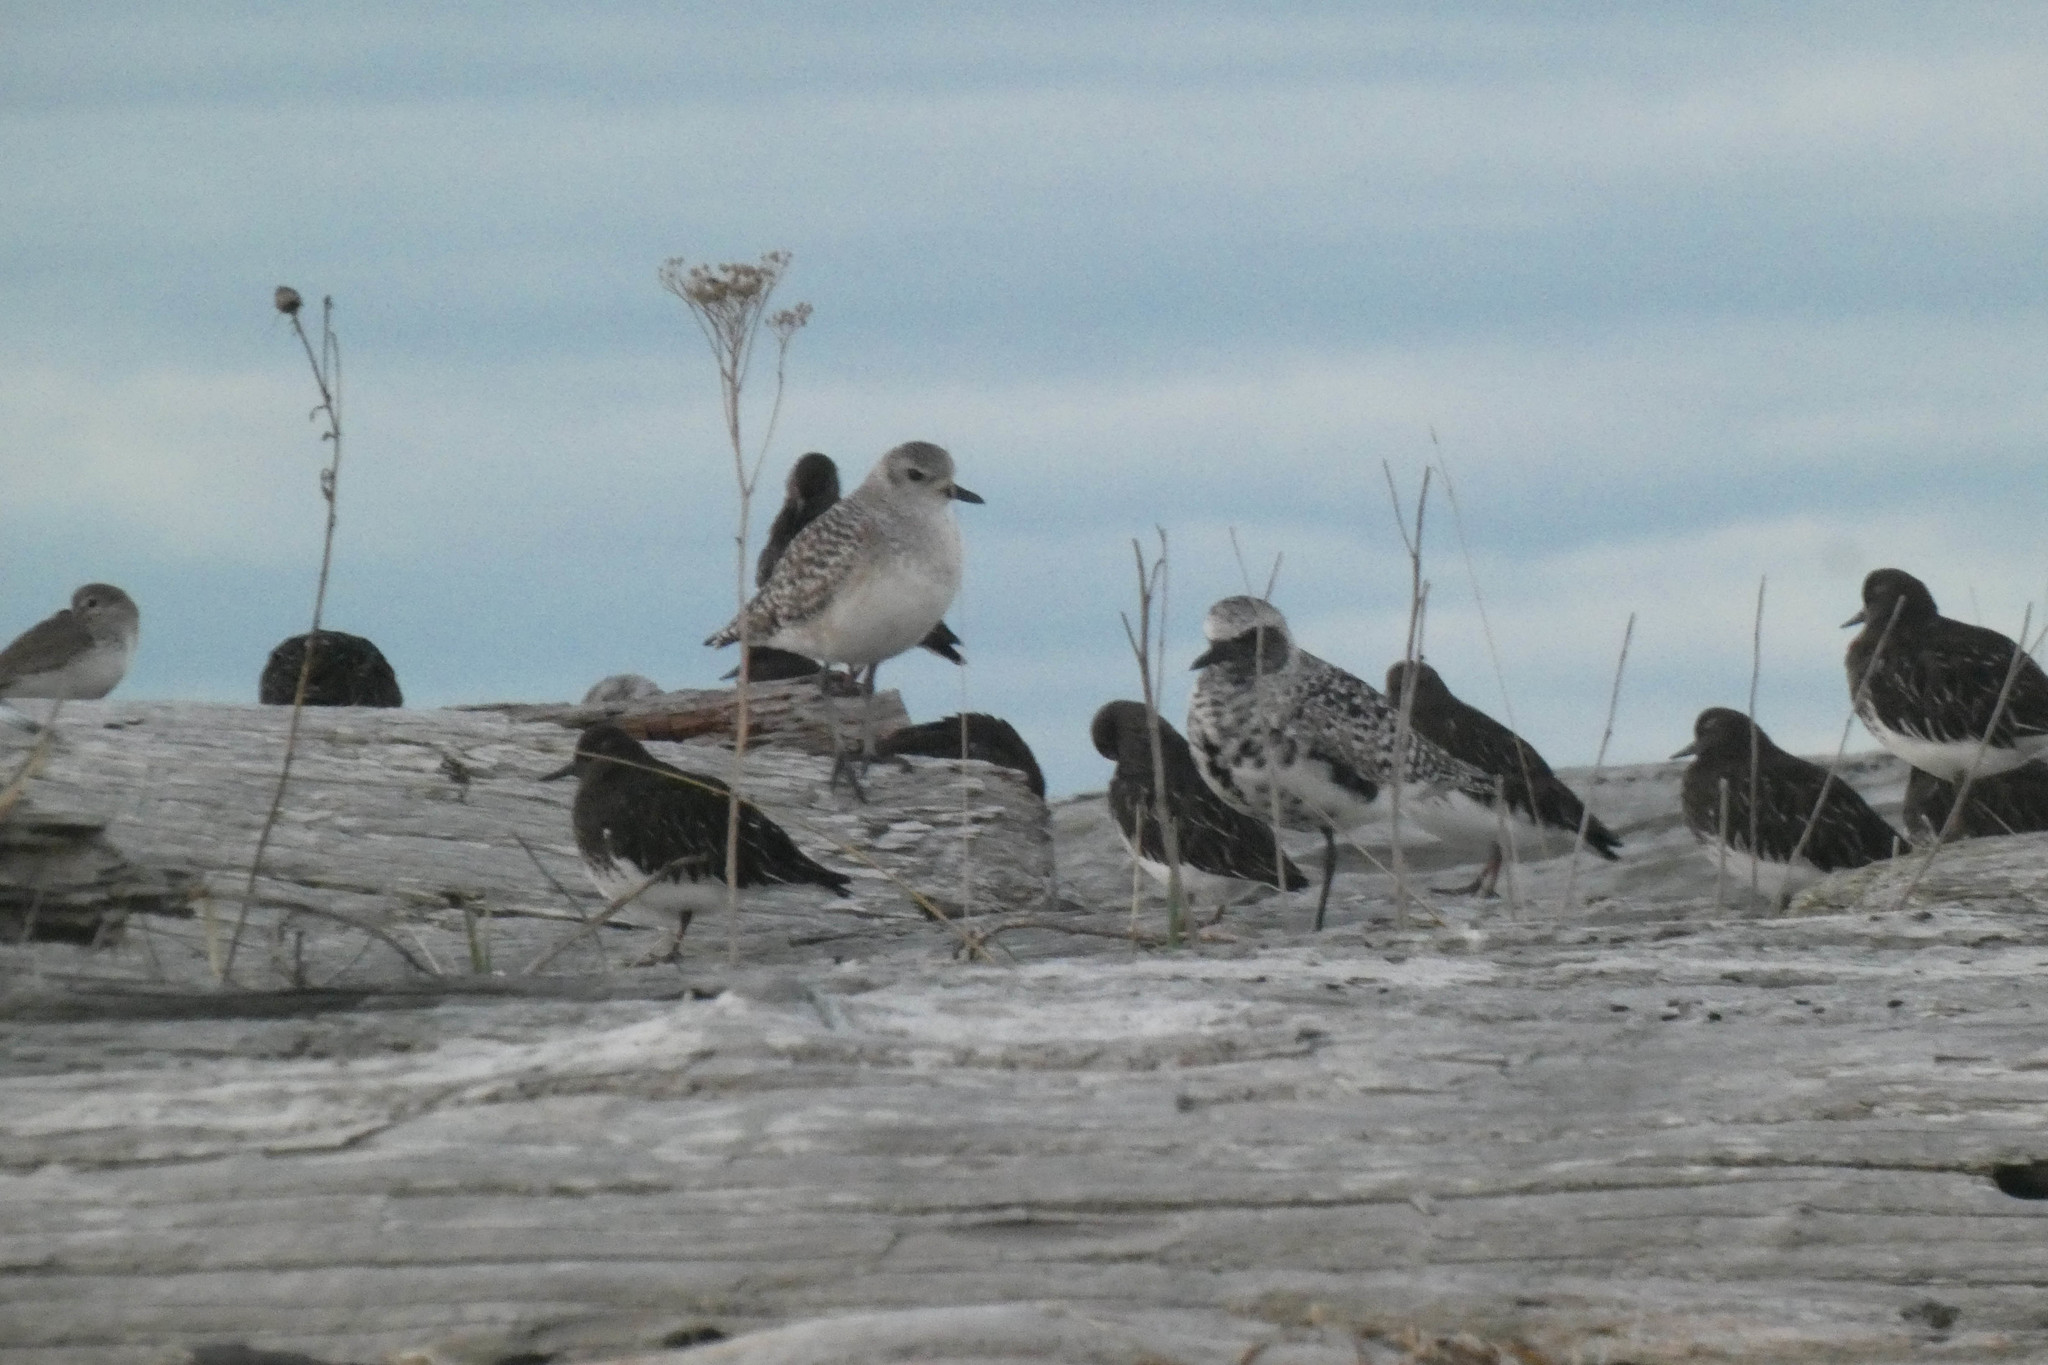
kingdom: Animalia
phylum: Chordata
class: Aves
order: Charadriiformes
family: Charadriidae
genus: Pluvialis
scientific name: Pluvialis squatarola
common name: Grey plover
